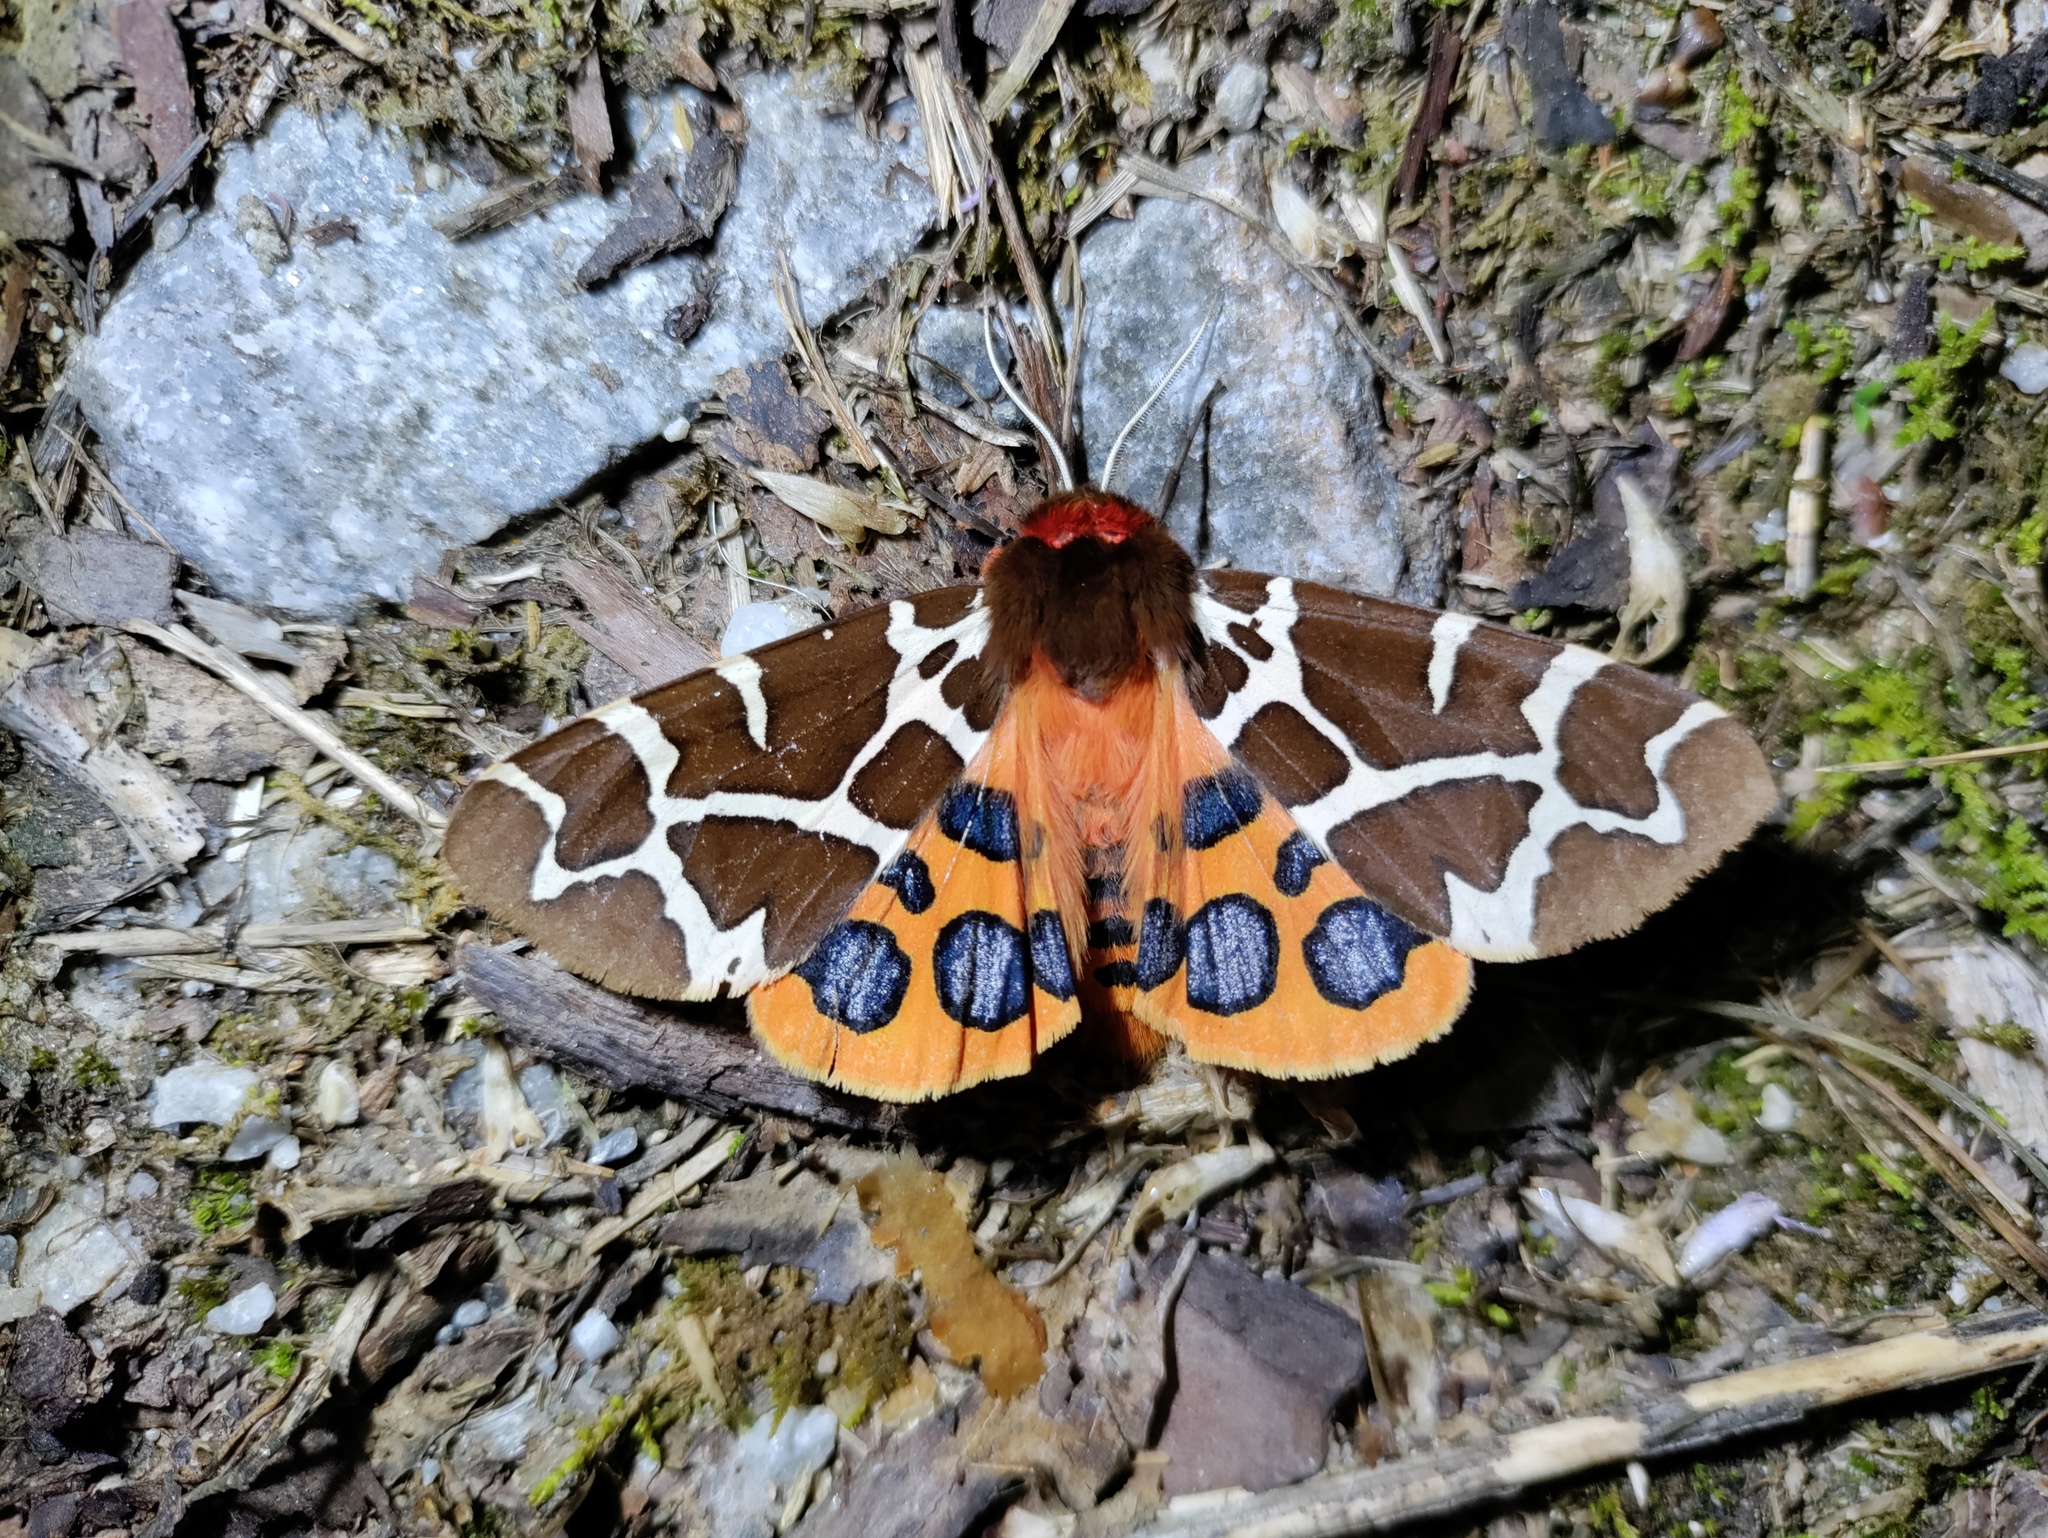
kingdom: Animalia
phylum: Arthropoda
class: Insecta
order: Lepidoptera
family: Erebidae
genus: Arctia
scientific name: Arctia caja
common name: Garden tiger
